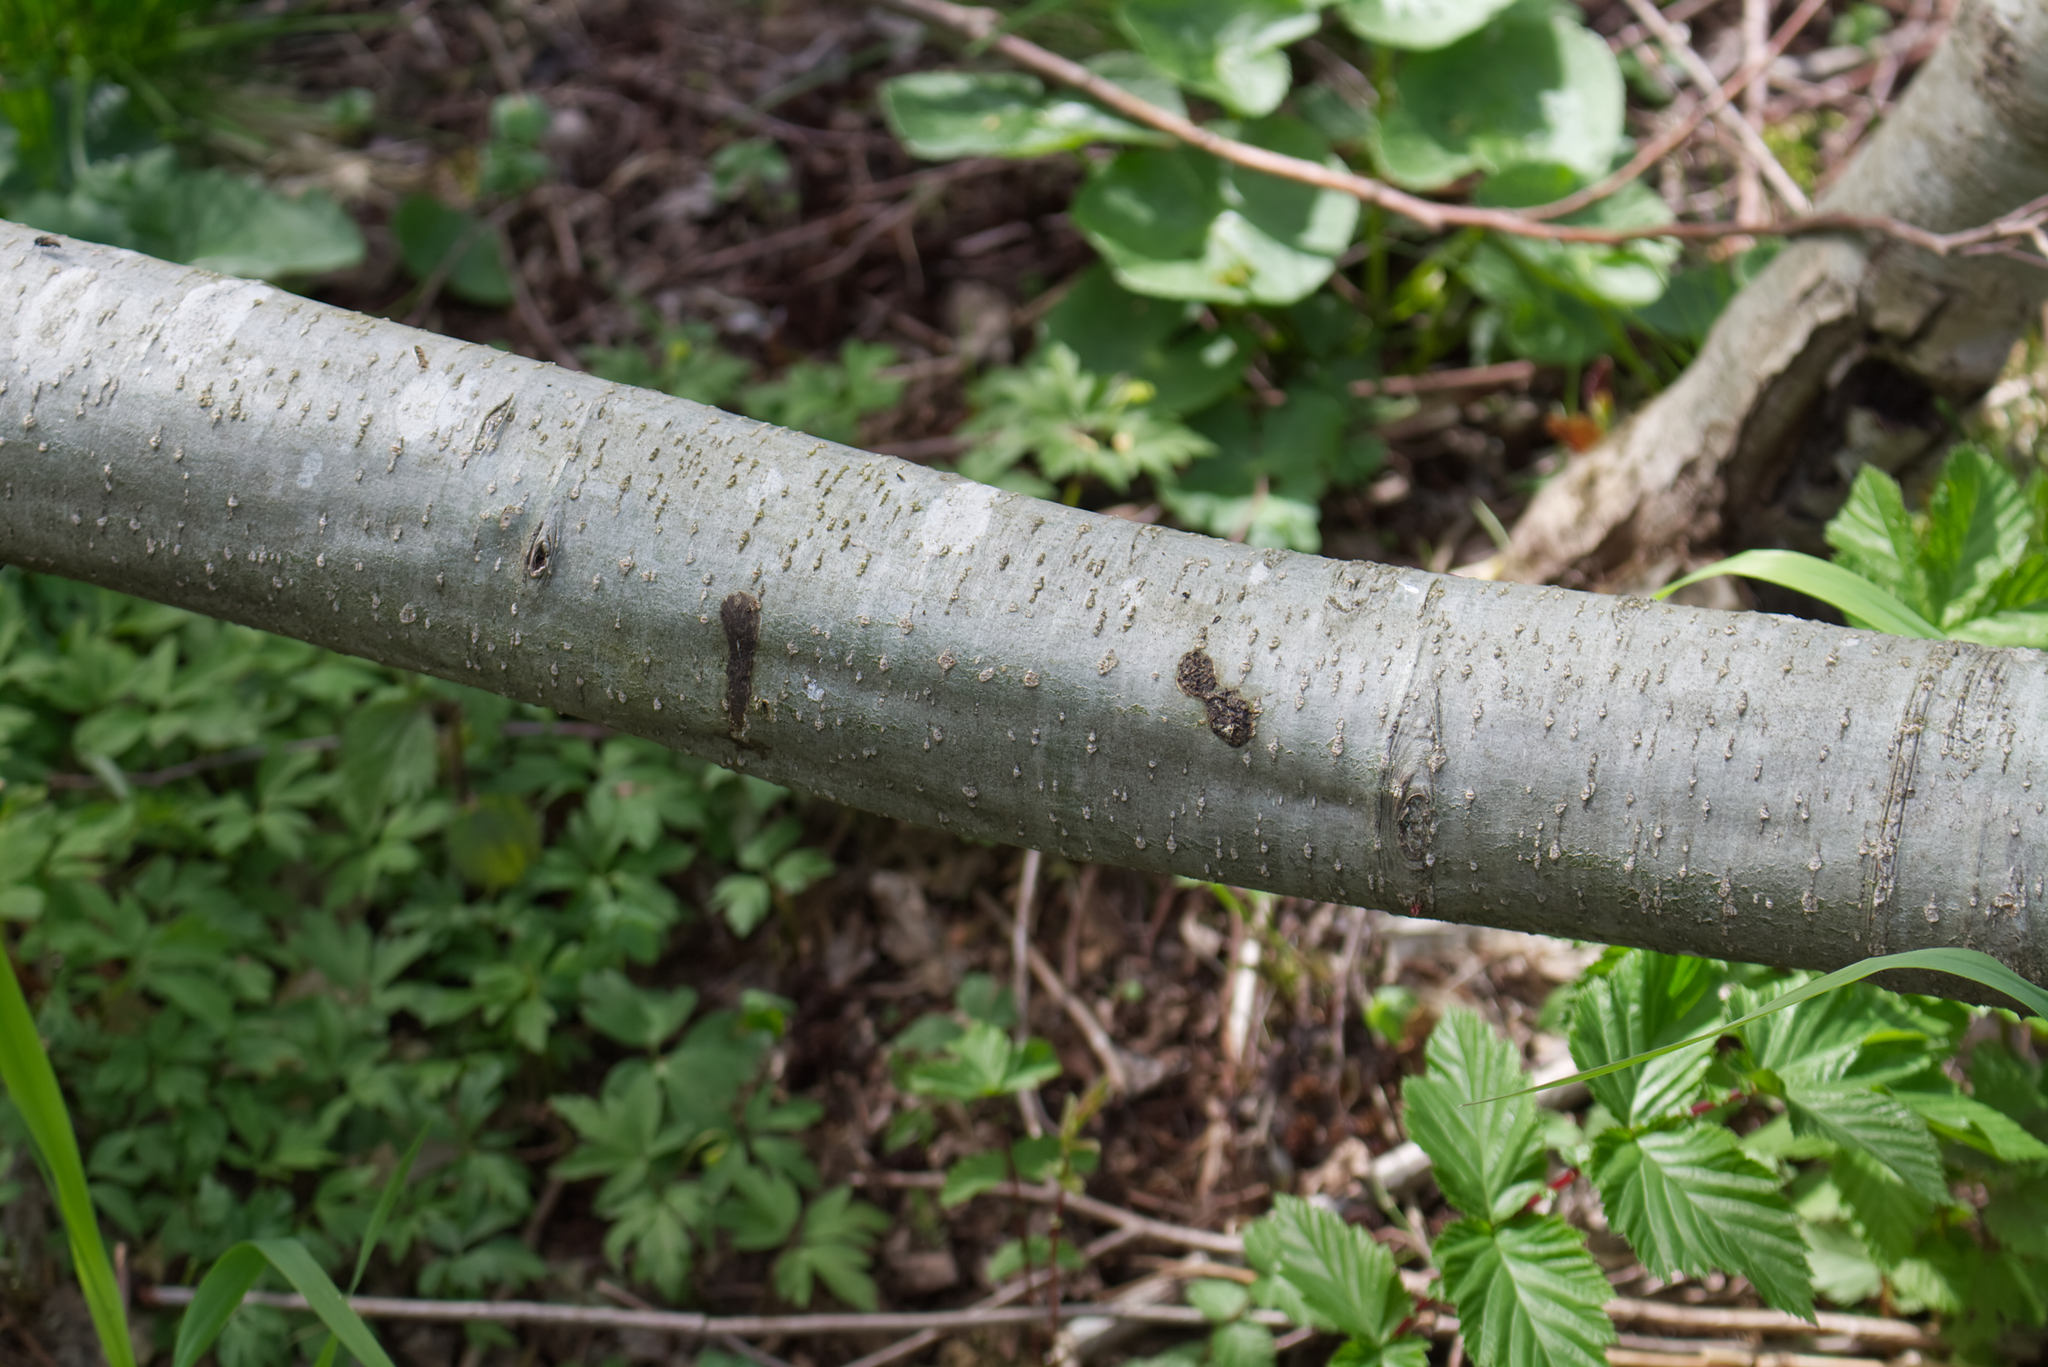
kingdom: Plantae
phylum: Tracheophyta
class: Magnoliopsida
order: Fagales
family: Betulaceae
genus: Alnus
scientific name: Alnus incana
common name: Grey alder
